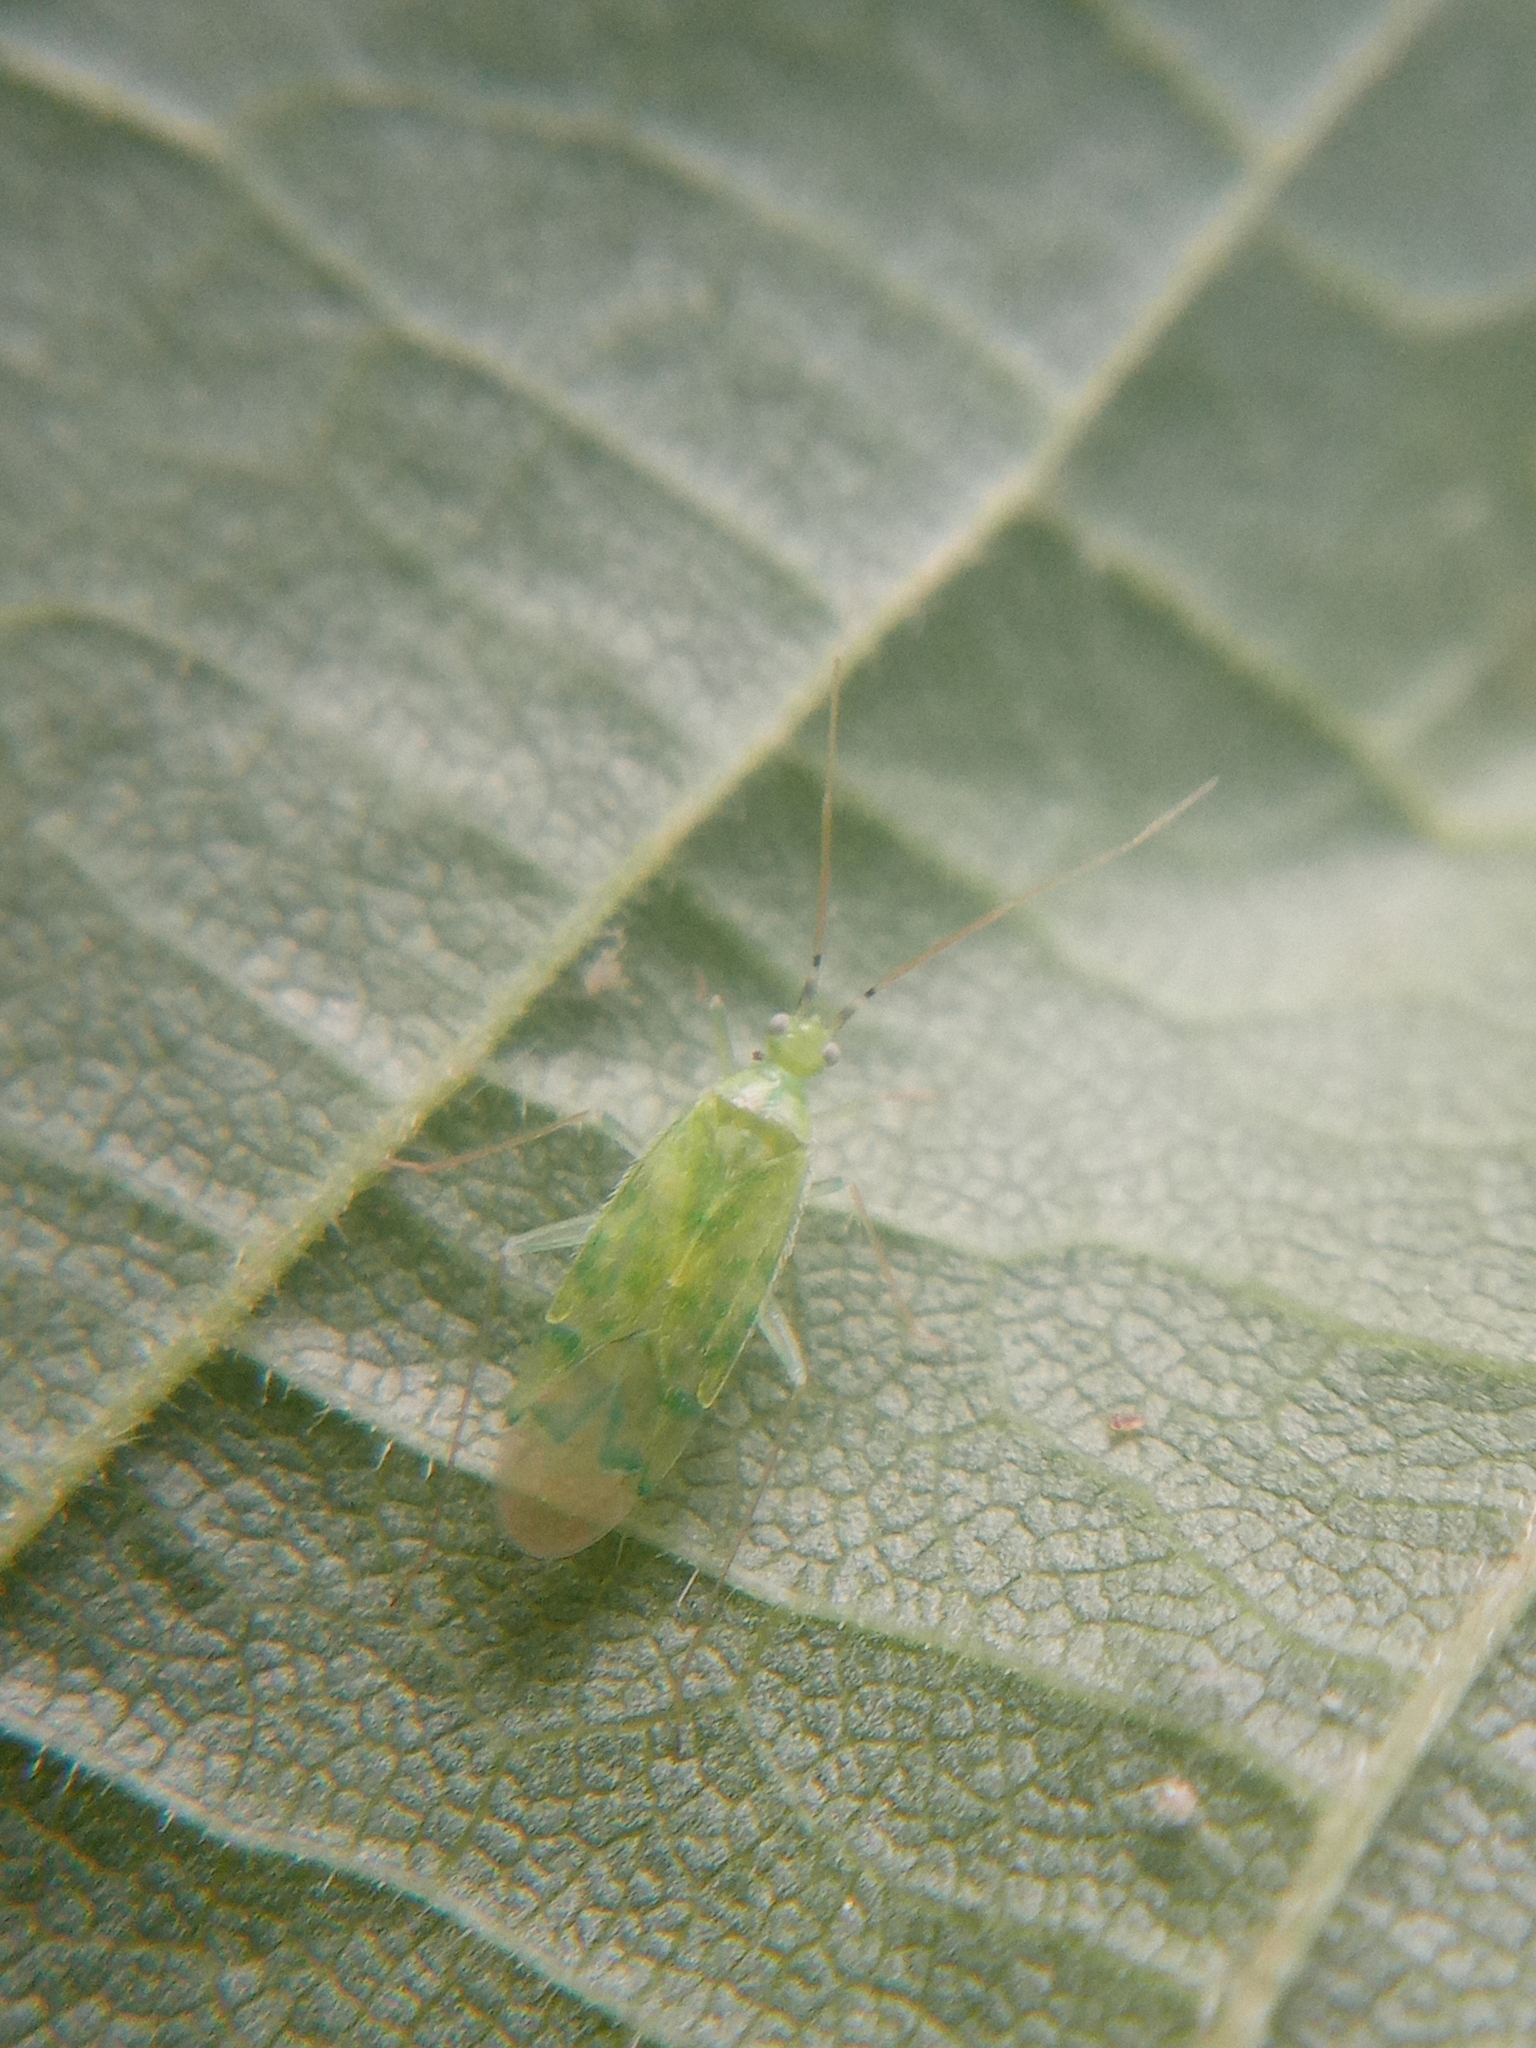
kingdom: Animalia
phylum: Arthropoda
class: Insecta
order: Hemiptera
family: Miridae
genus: Malacocoris
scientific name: Malacocoris chlorizans
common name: Plant bug
